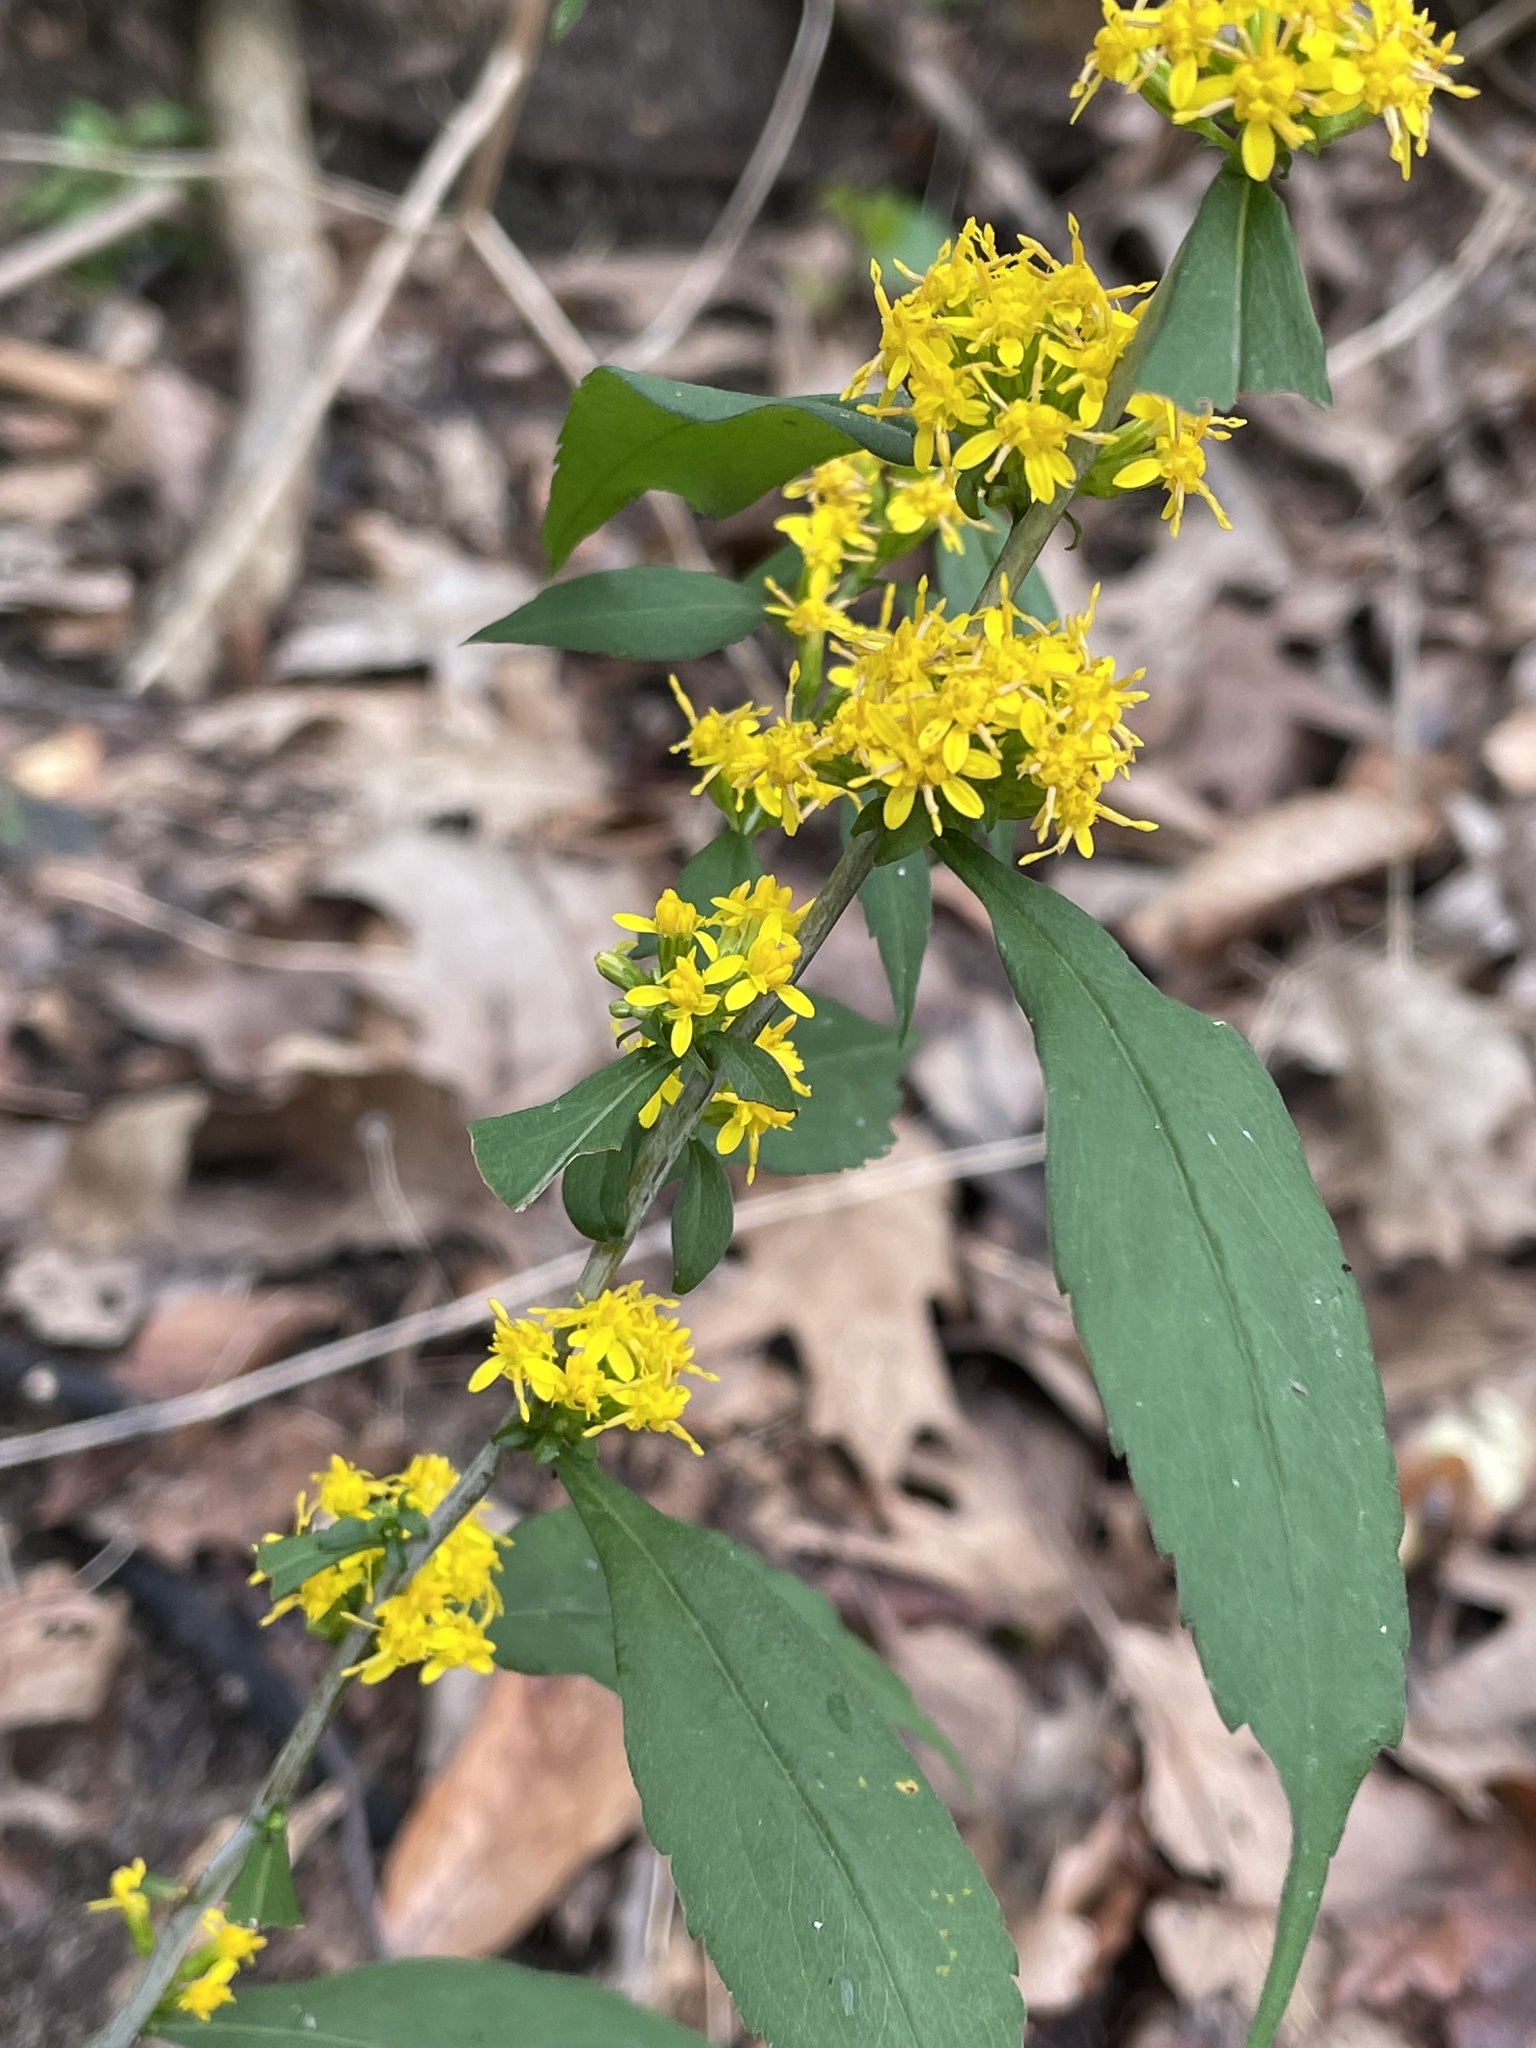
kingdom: Plantae
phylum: Tracheophyta
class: Magnoliopsida
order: Asterales
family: Asteraceae
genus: Solidago
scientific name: Solidago caesia
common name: Woodland goldenrod
